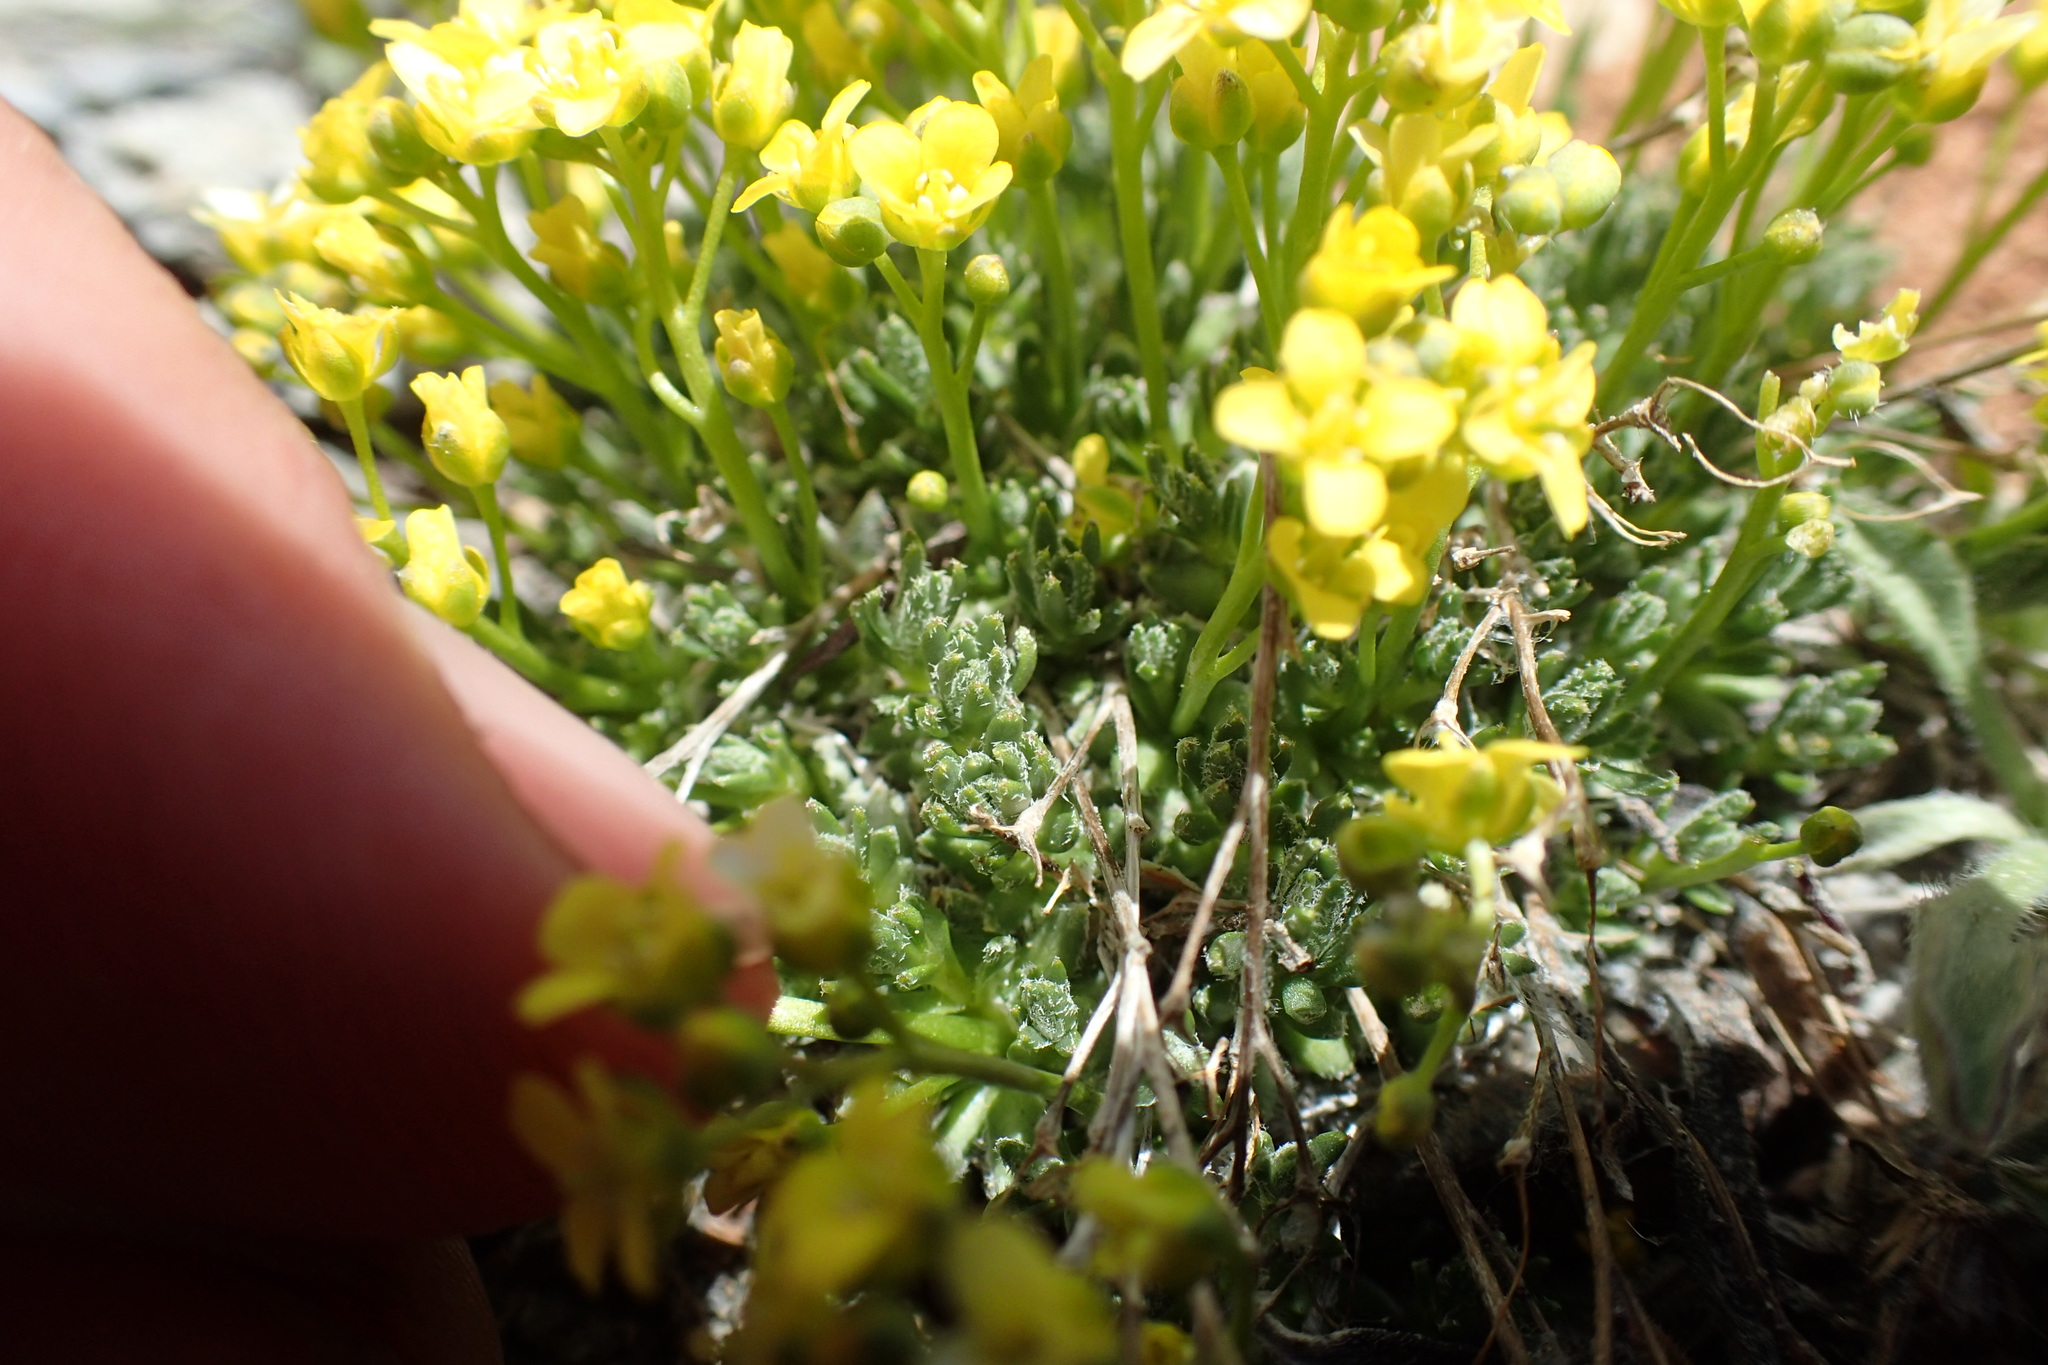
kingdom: Plantae
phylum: Tracheophyta
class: Magnoliopsida
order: Brassicales
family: Brassicaceae
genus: Draba
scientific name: Draba oligosperma
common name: Few-seed draba
